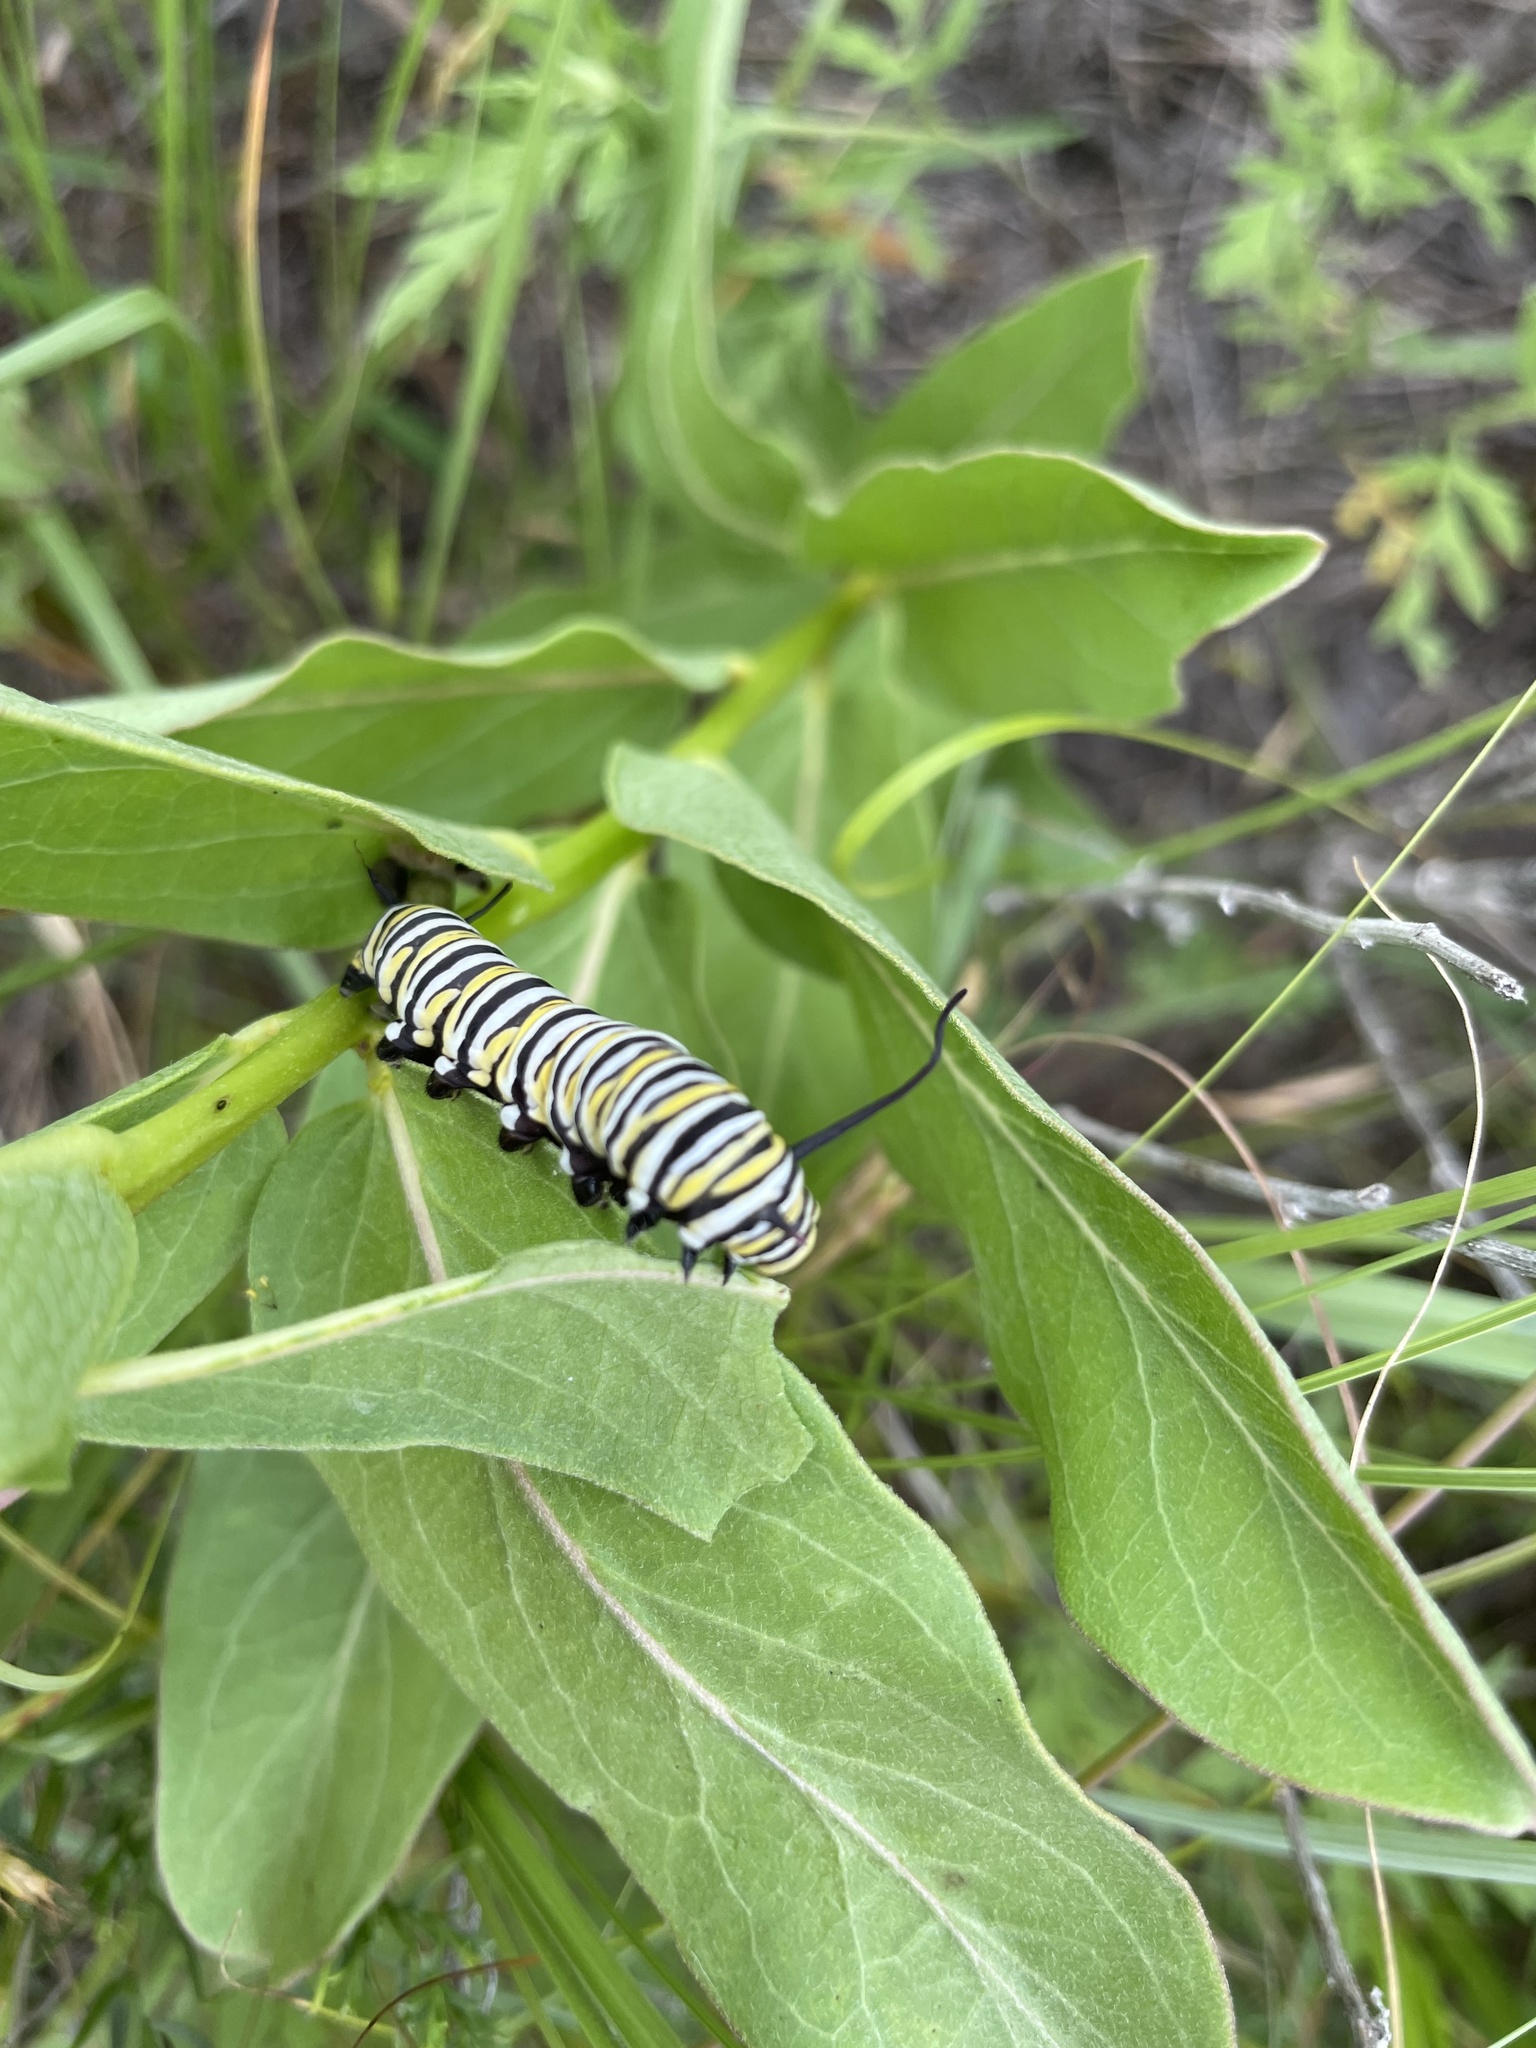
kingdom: Animalia
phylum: Arthropoda
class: Insecta
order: Lepidoptera
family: Nymphalidae
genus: Danaus
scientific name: Danaus plexippus
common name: Monarch
